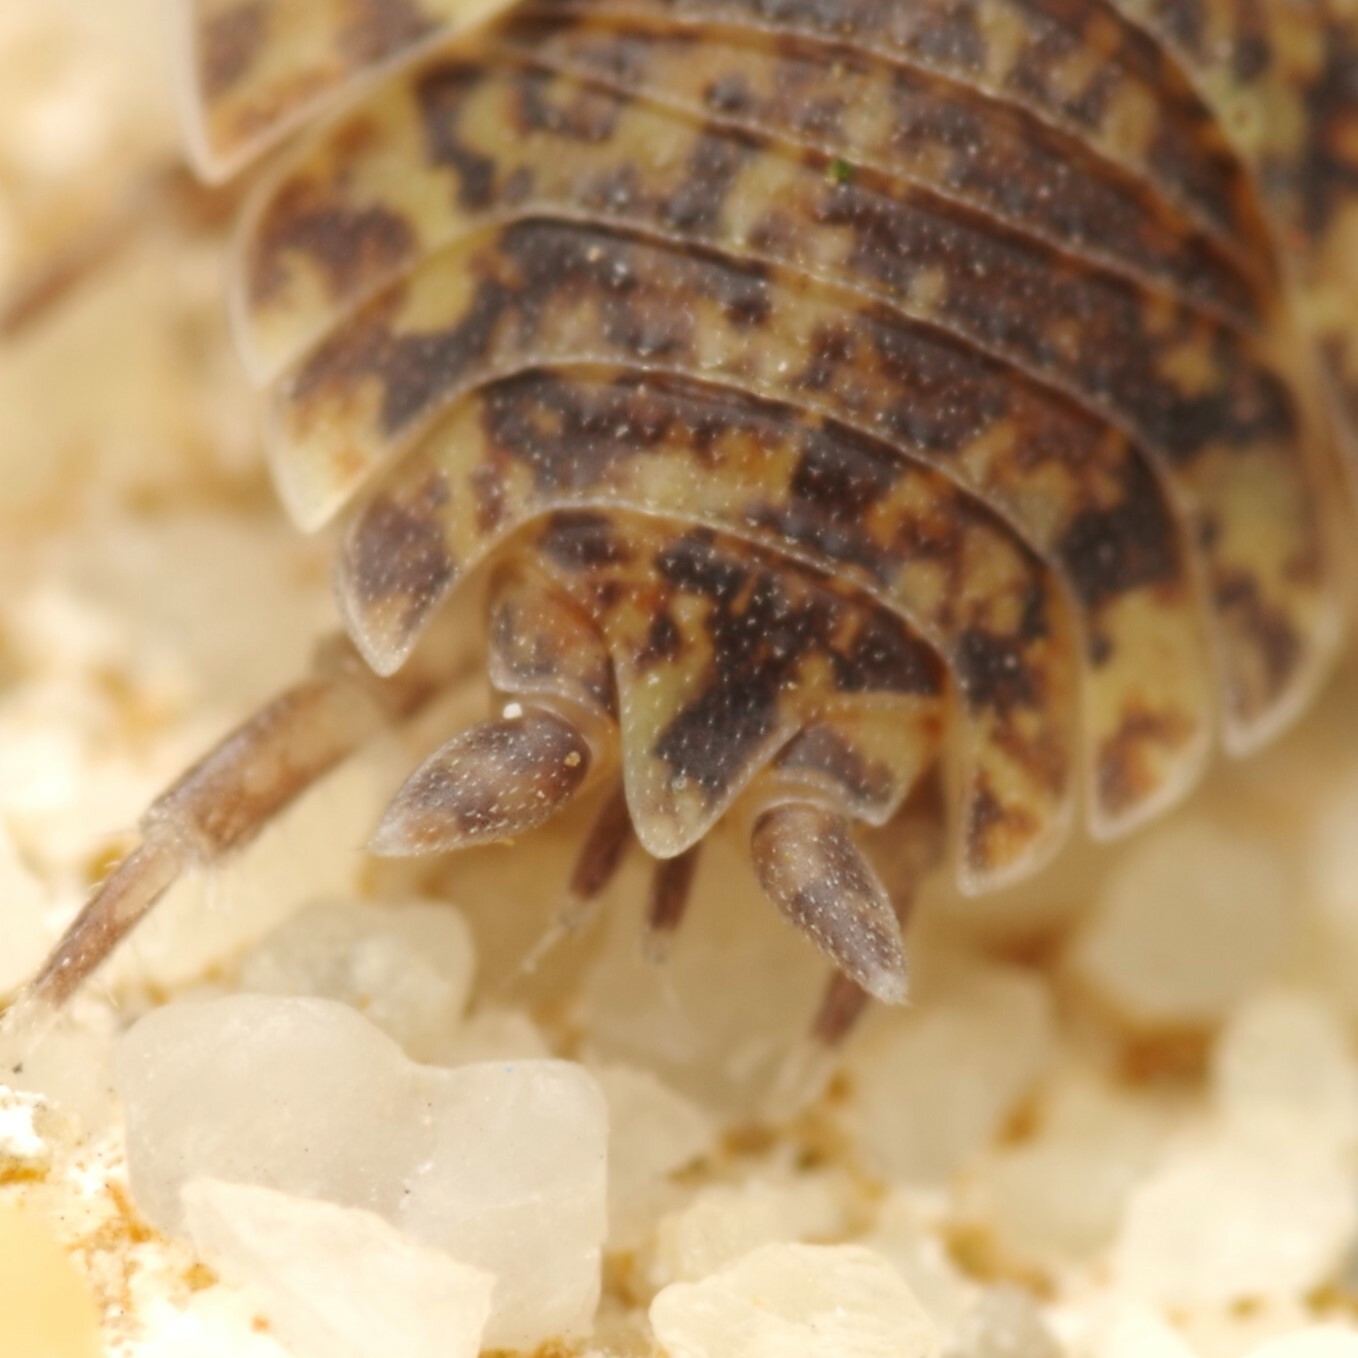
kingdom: Animalia
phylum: Arthropoda
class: Malacostraca
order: Isopoda
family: Porcellionidae
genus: Porcellio
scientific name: Porcellio scaber
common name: Common rough woodlouse
